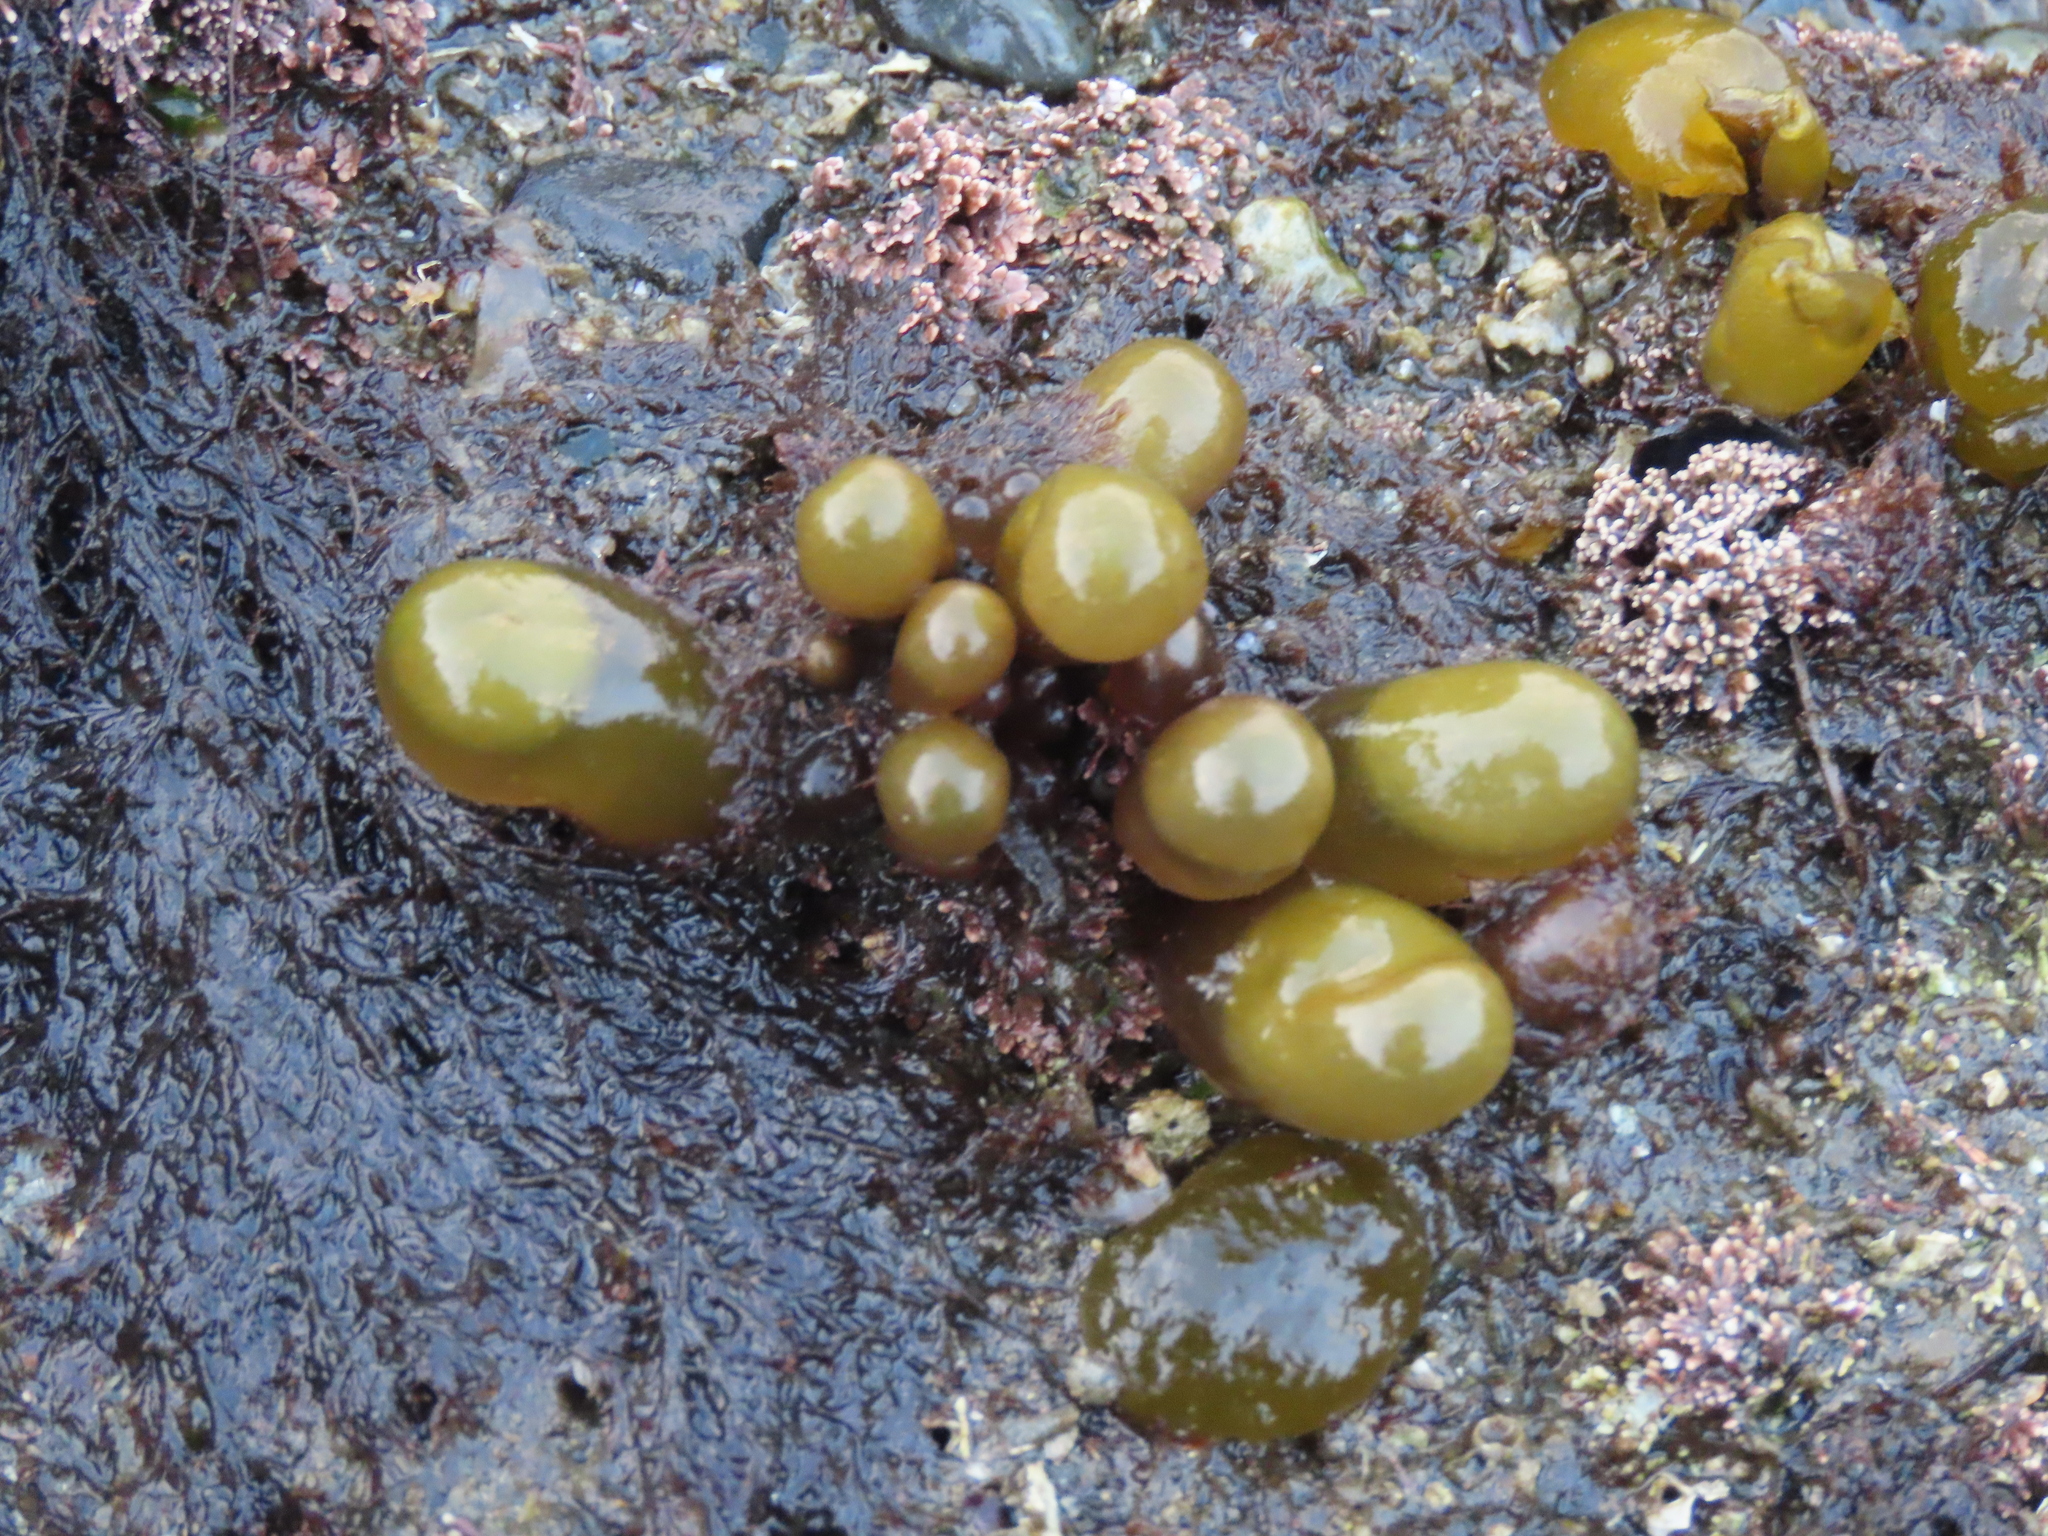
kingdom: Plantae
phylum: Rhodophyta
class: Florideophyceae
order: Palmariales
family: Palmariaceae
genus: Halosaccion
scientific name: Halosaccion glandiforme
